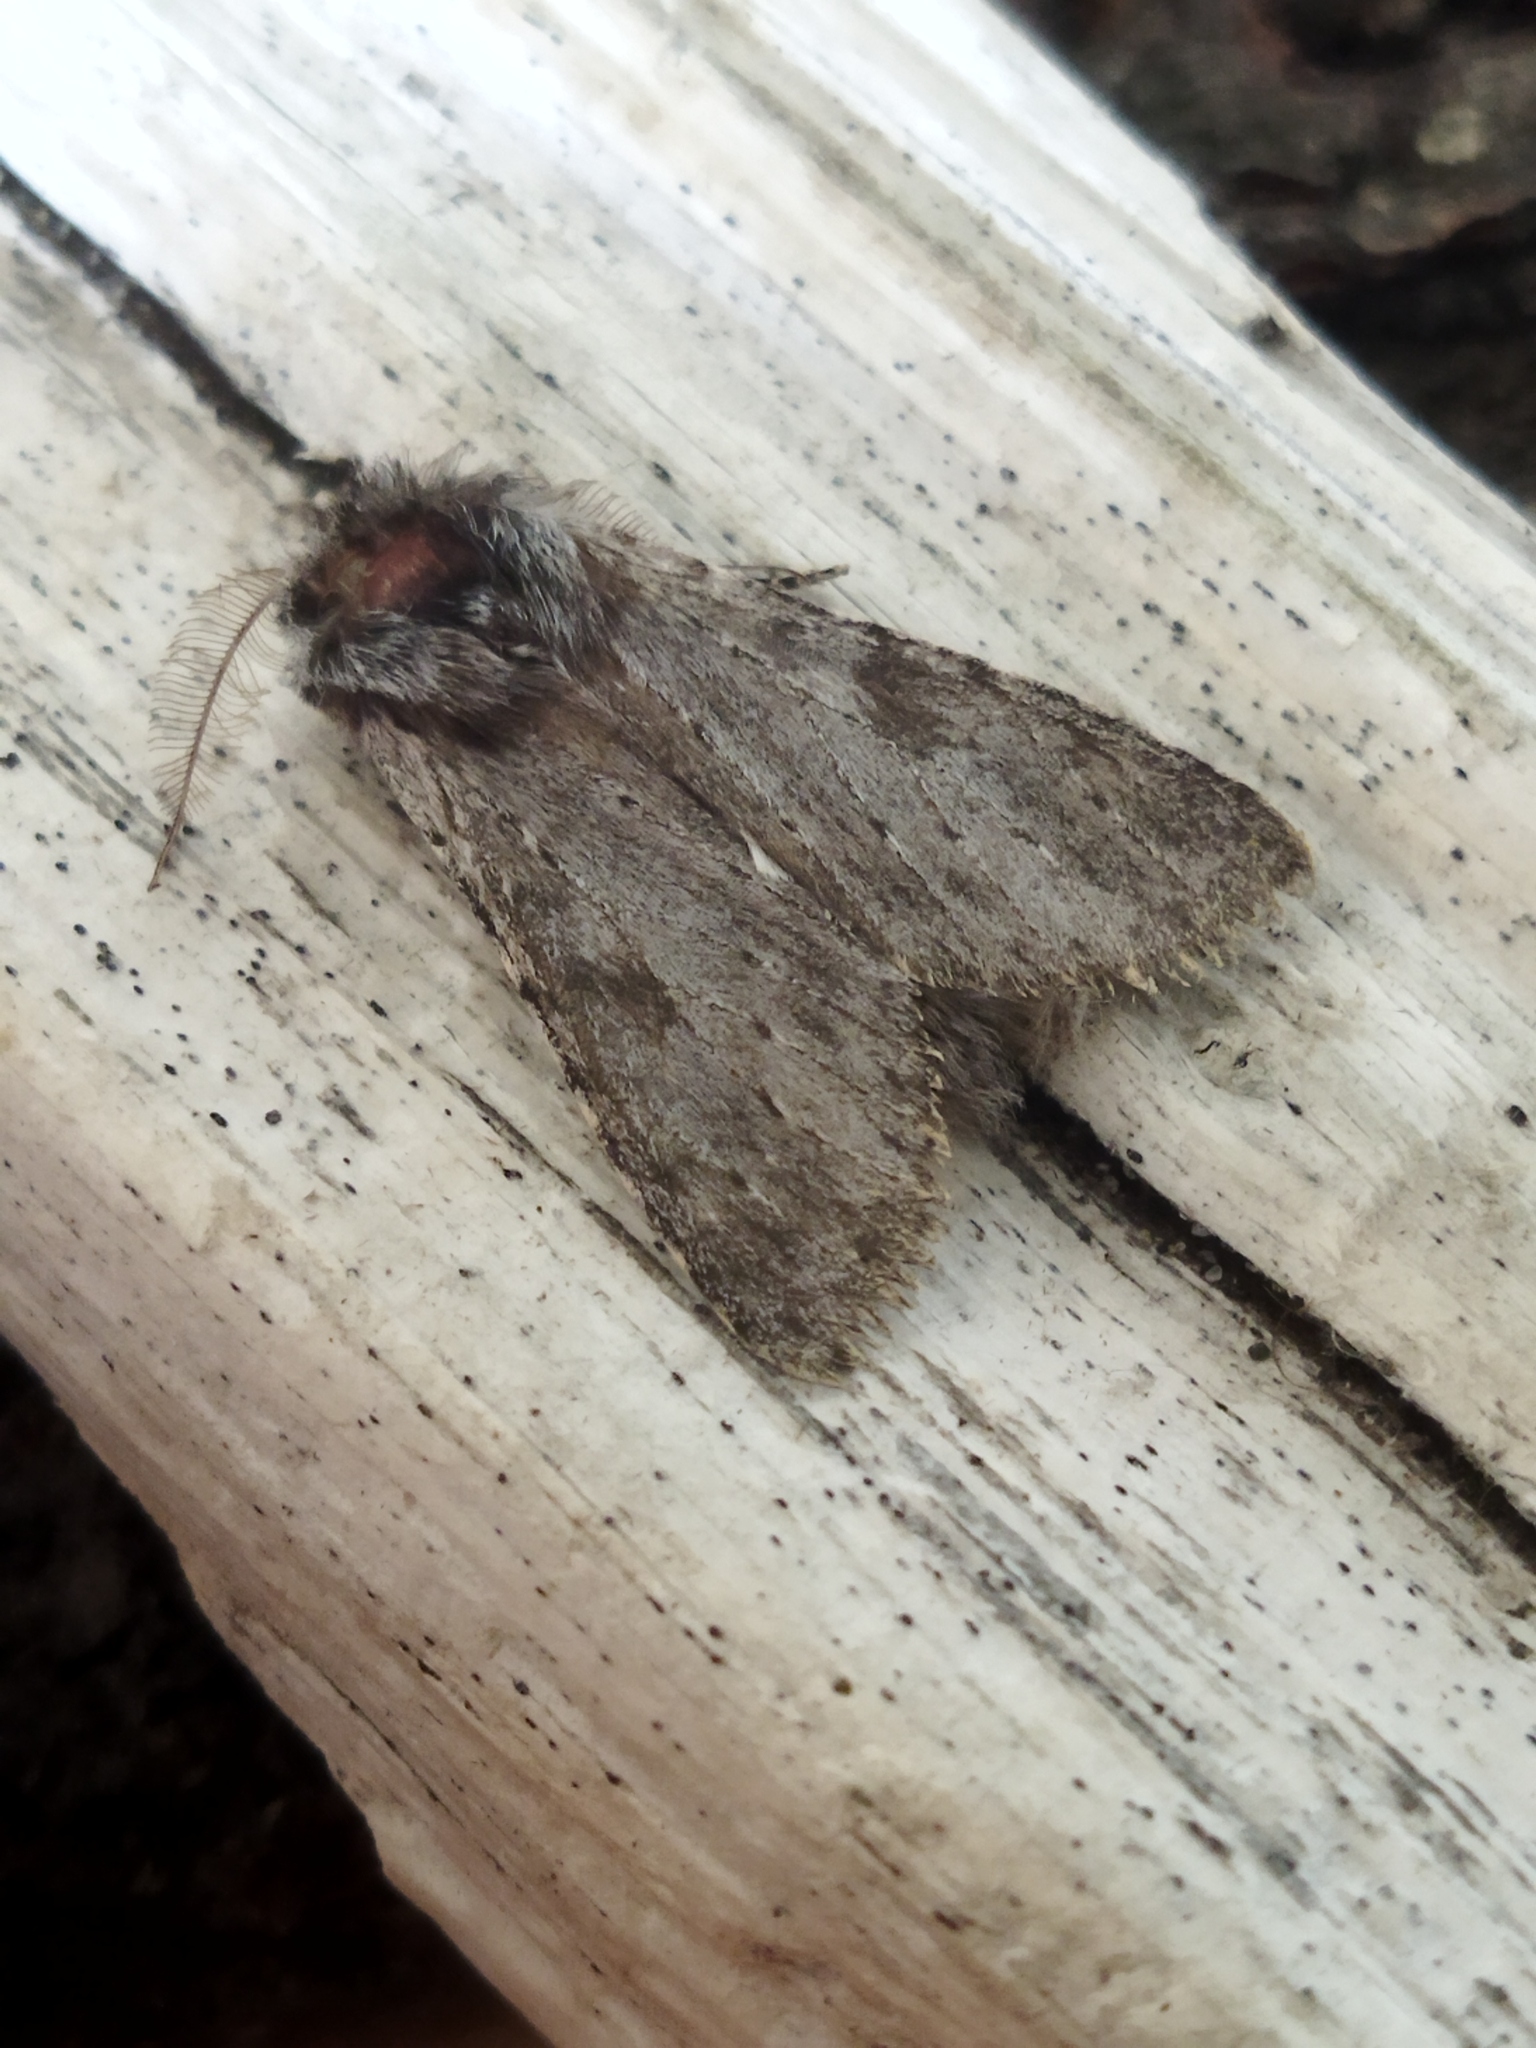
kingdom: Animalia
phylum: Arthropoda
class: Insecta
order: Lepidoptera
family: Notodontidae
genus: Dicranura
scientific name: Dicranura ulmi
